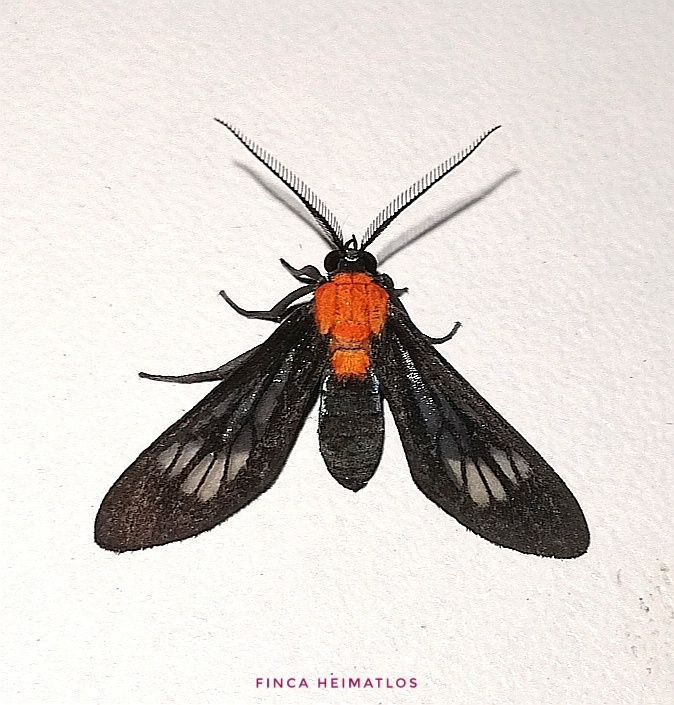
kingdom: Animalia
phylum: Arthropoda
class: Insecta
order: Lepidoptera
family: Erebidae
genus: Saurita
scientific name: Saurita hilda
